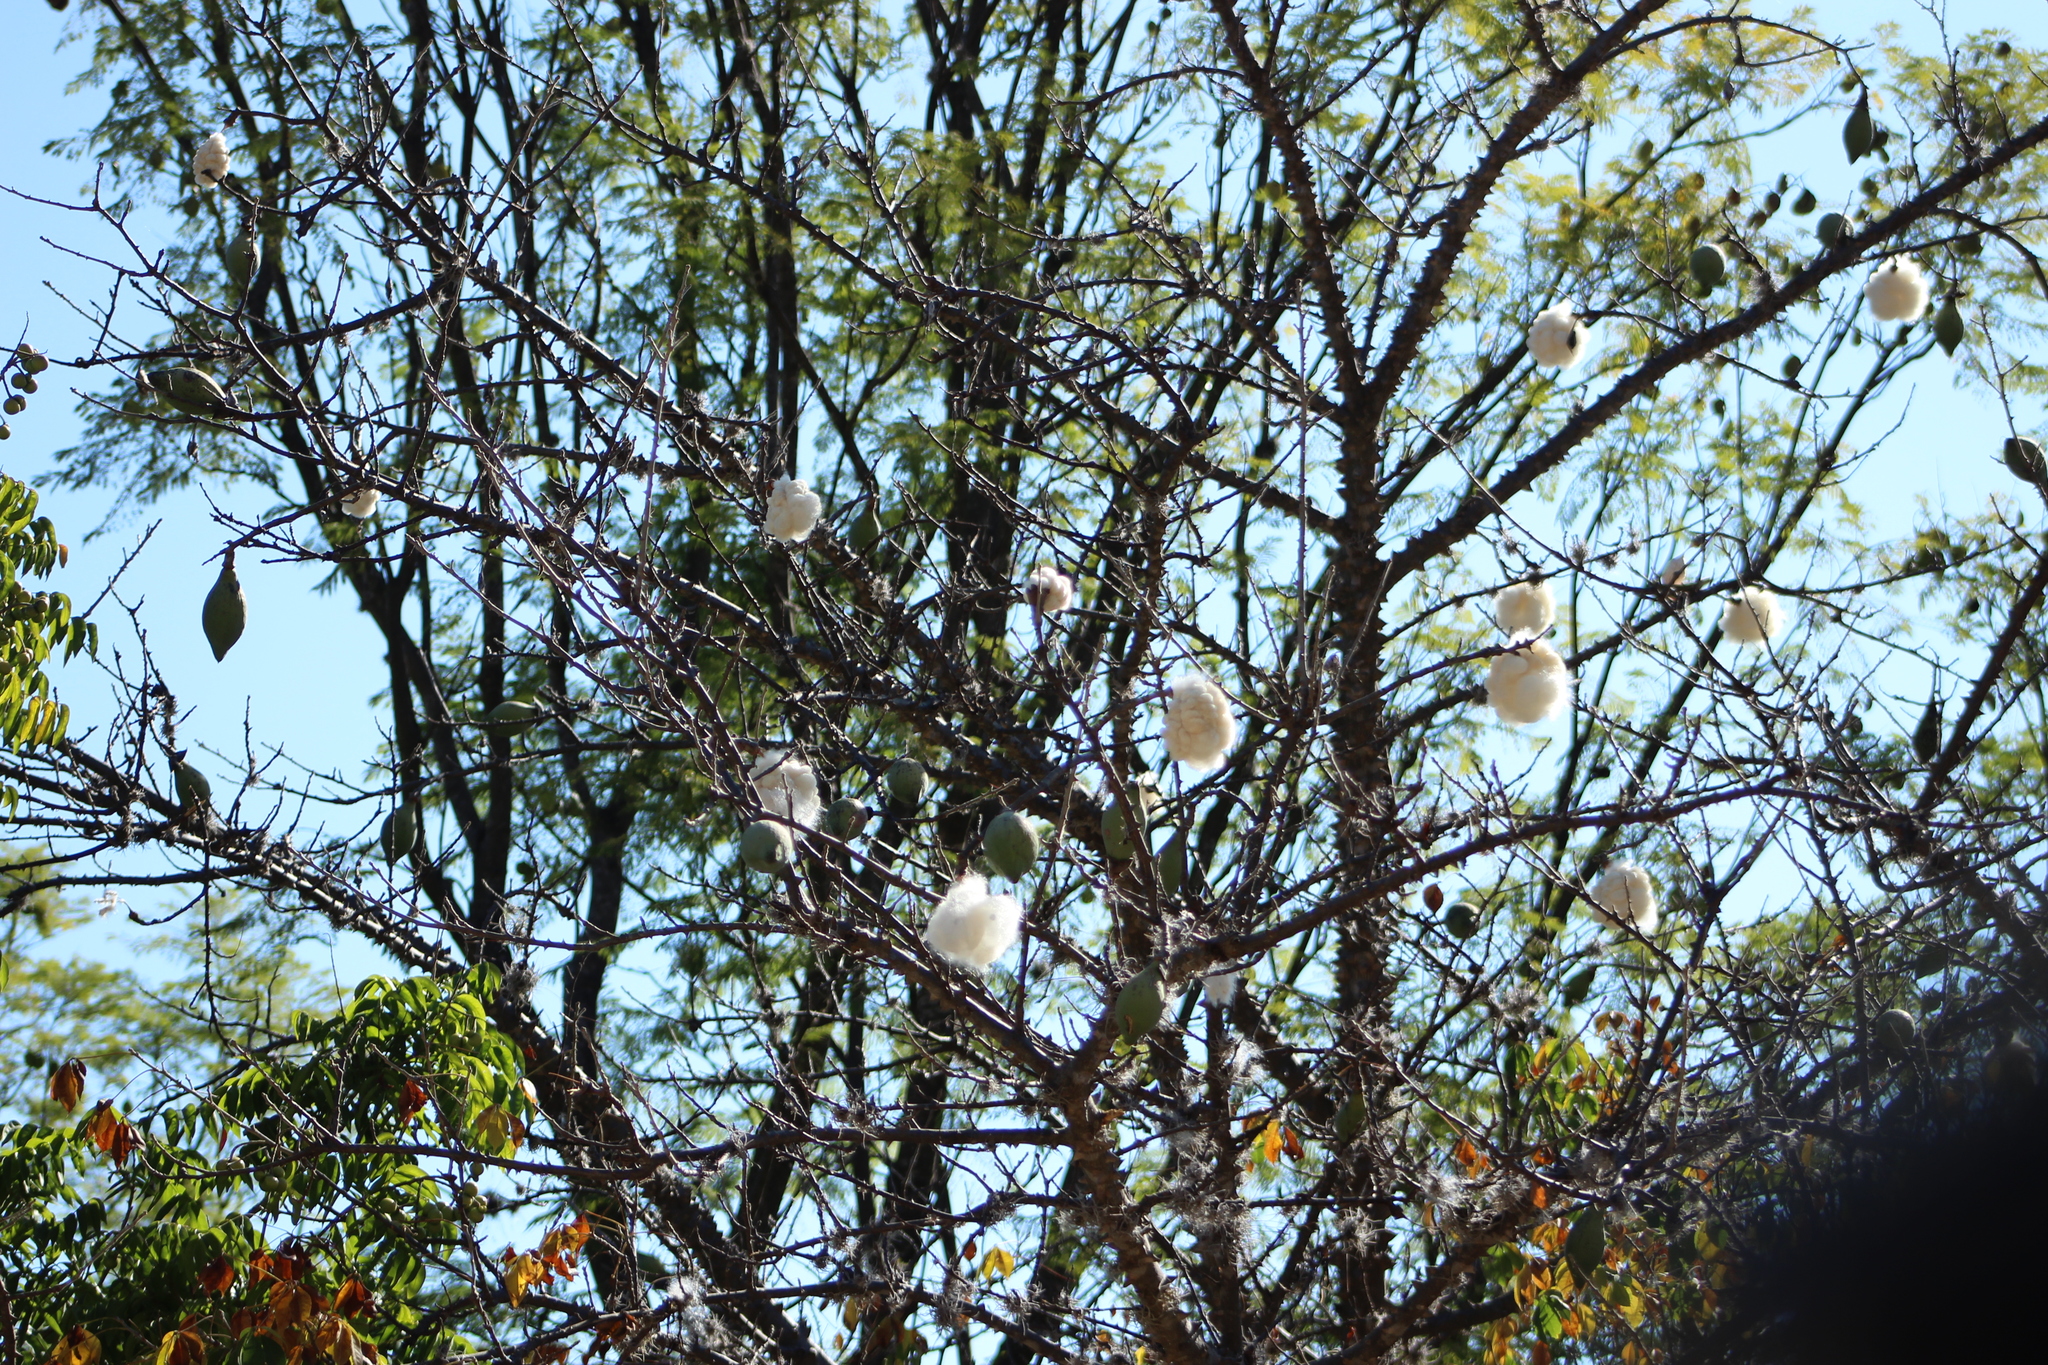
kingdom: Plantae
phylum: Tracheophyta
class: Magnoliopsida
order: Malvales
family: Malvaceae
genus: Ceiba
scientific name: Ceiba aesculifolia
